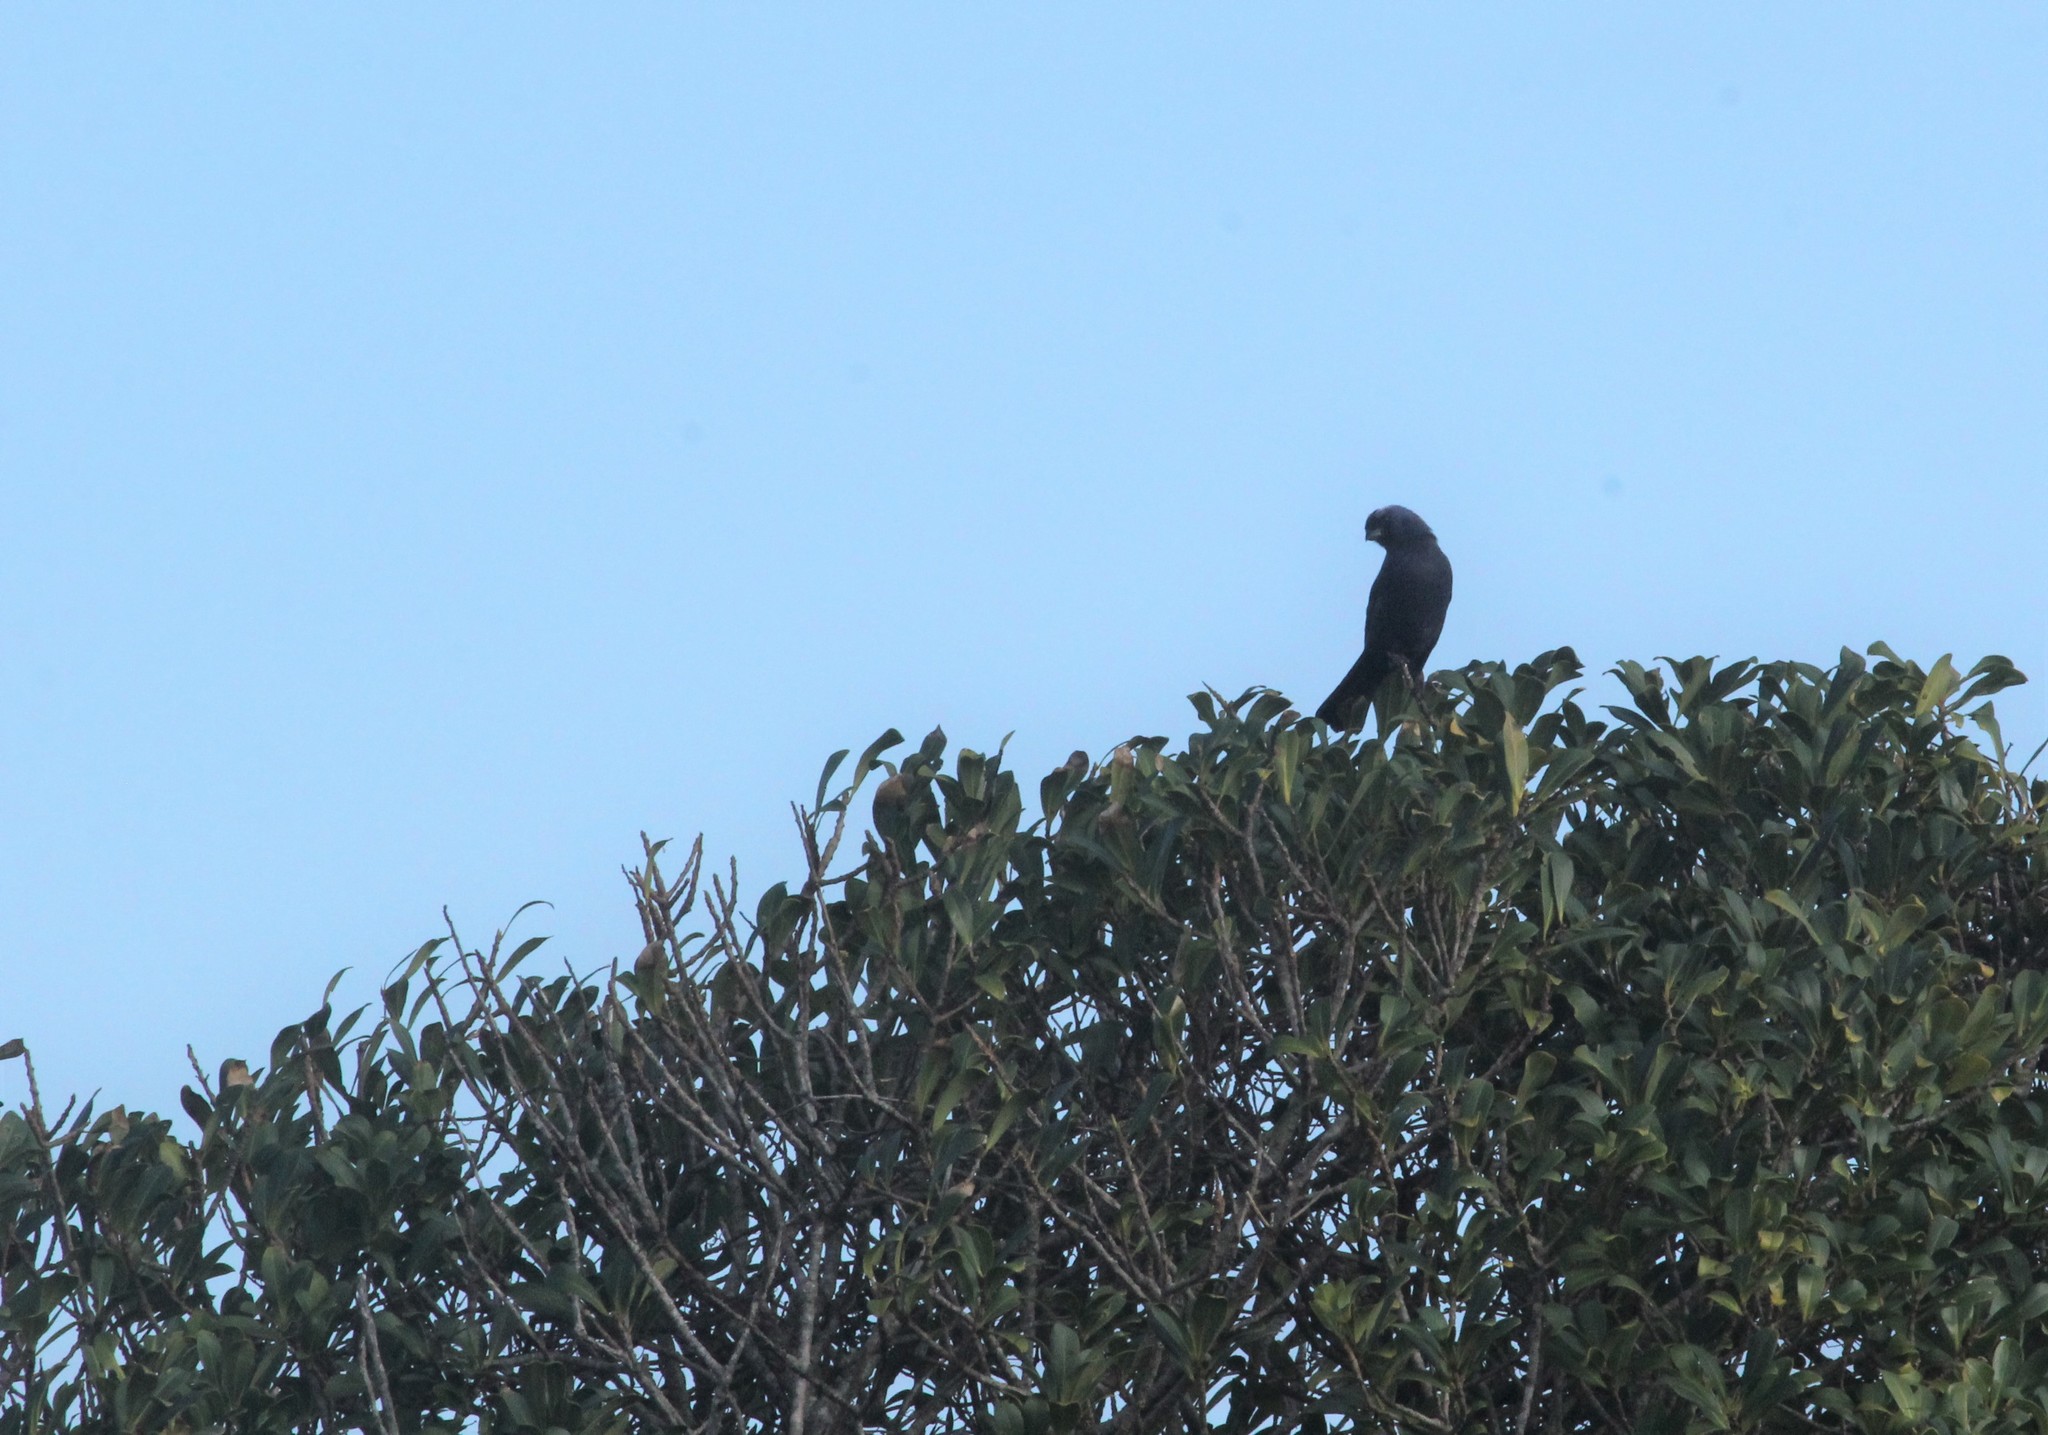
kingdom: Animalia
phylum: Chordata
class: Aves
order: Passeriformes
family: Thraupidae
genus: Stephanophorus
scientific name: Stephanophorus diadematus
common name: Diademed tanager
